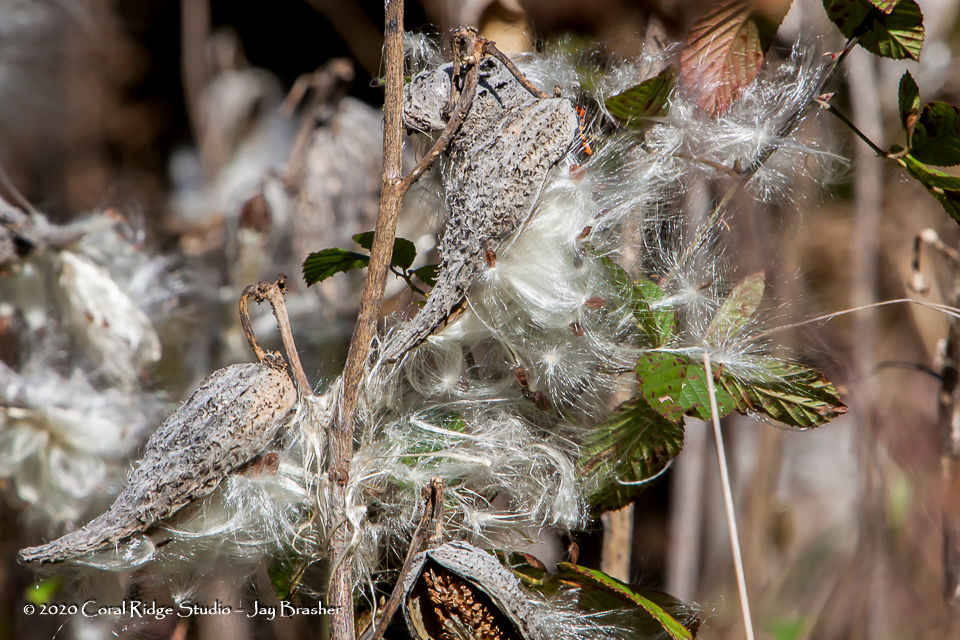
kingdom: Plantae
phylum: Tracheophyta
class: Magnoliopsida
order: Gentianales
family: Apocynaceae
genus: Asclepias
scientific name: Asclepias syriaca
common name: Common milkweed
